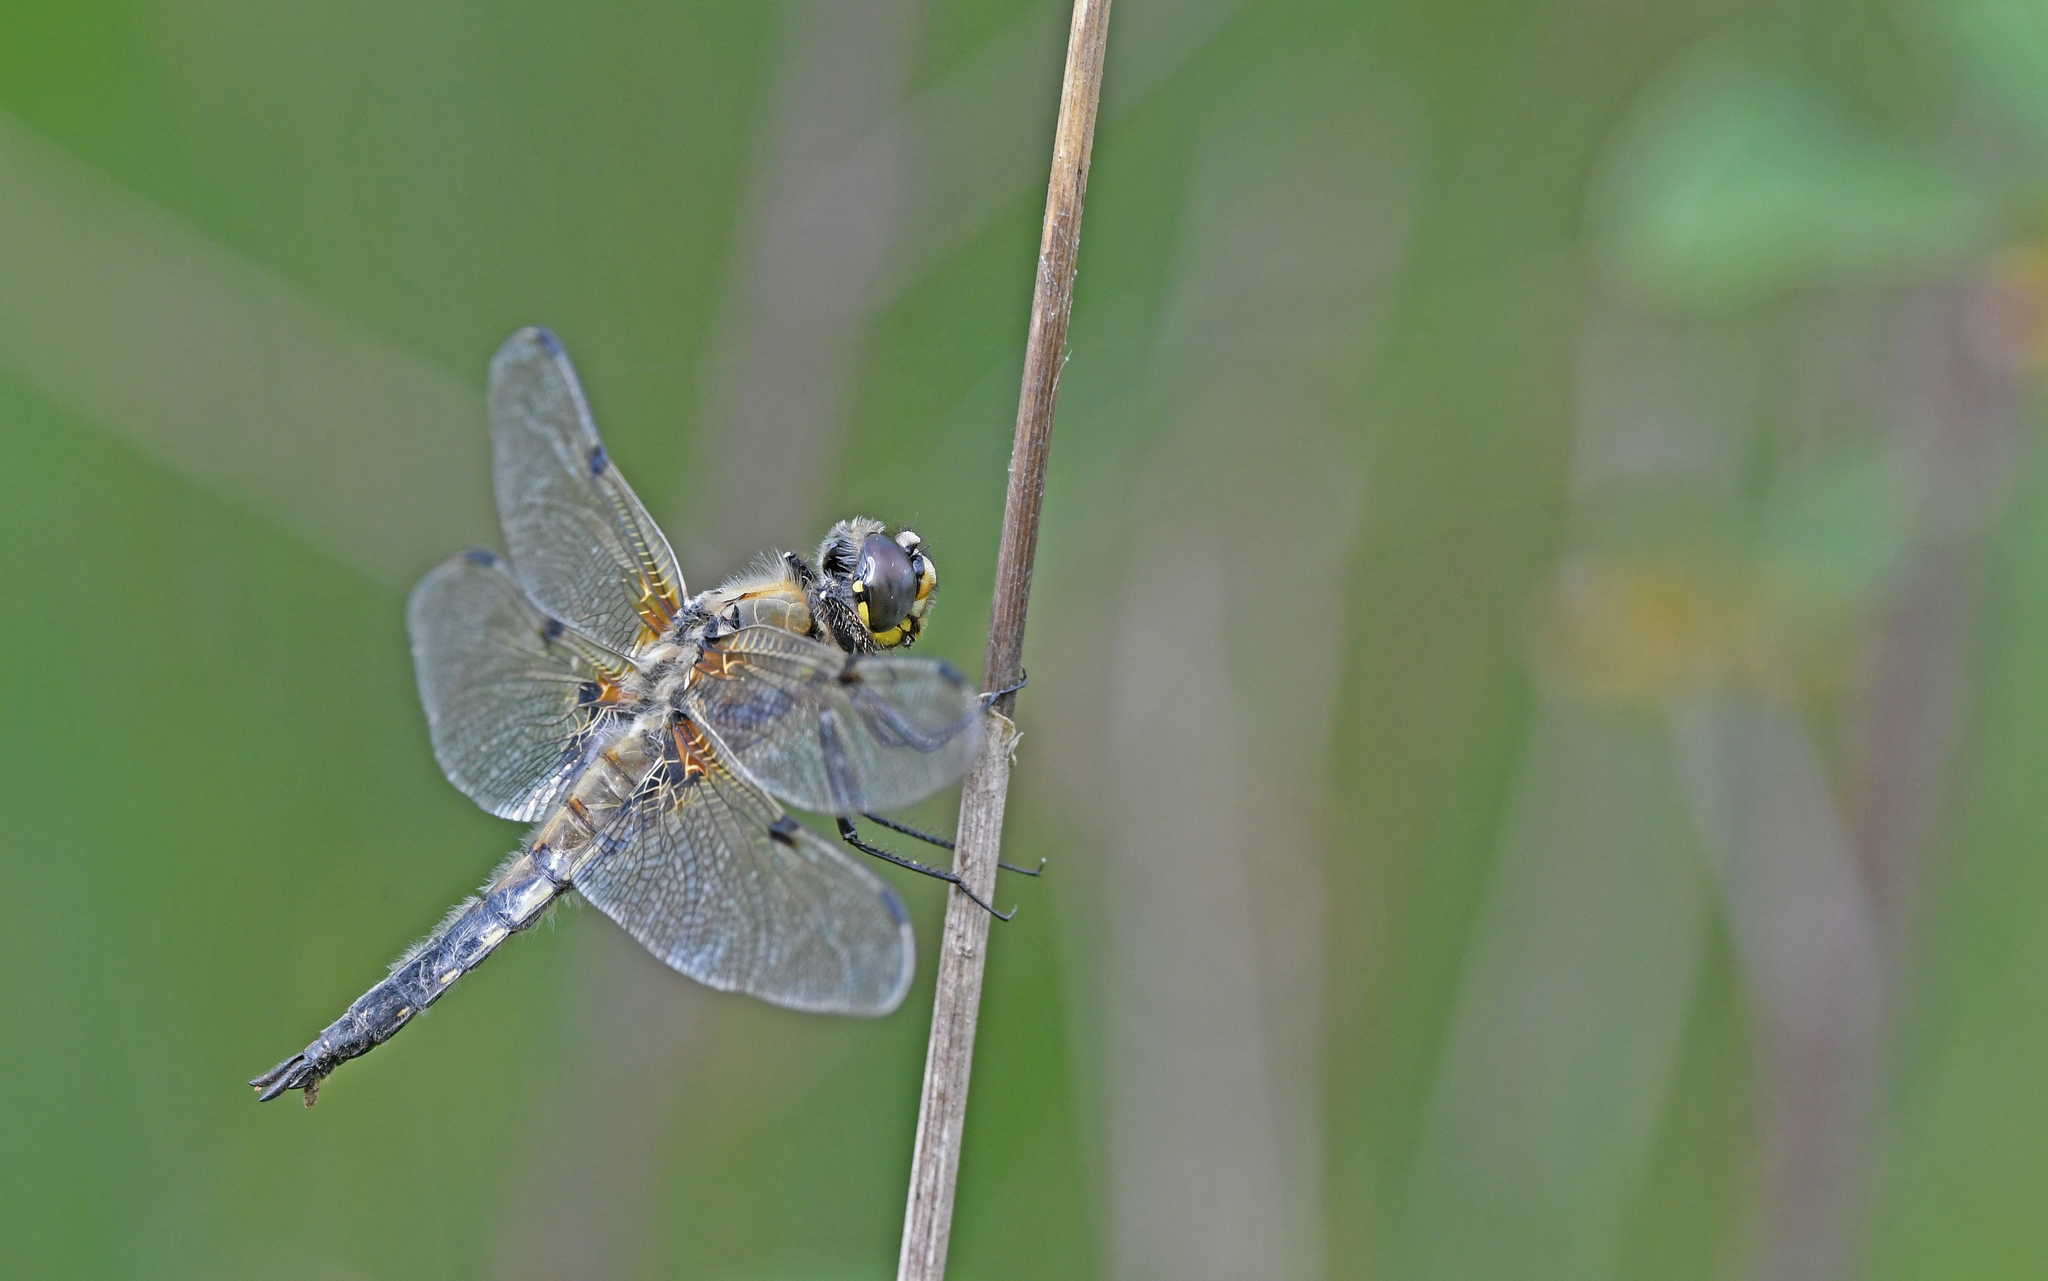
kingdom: Animalia
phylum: Arthropoda
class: Insecta
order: Odonata
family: Libellulidae
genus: Libellula
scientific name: Libellula quadrimaculata
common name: Four-spotted chaser
